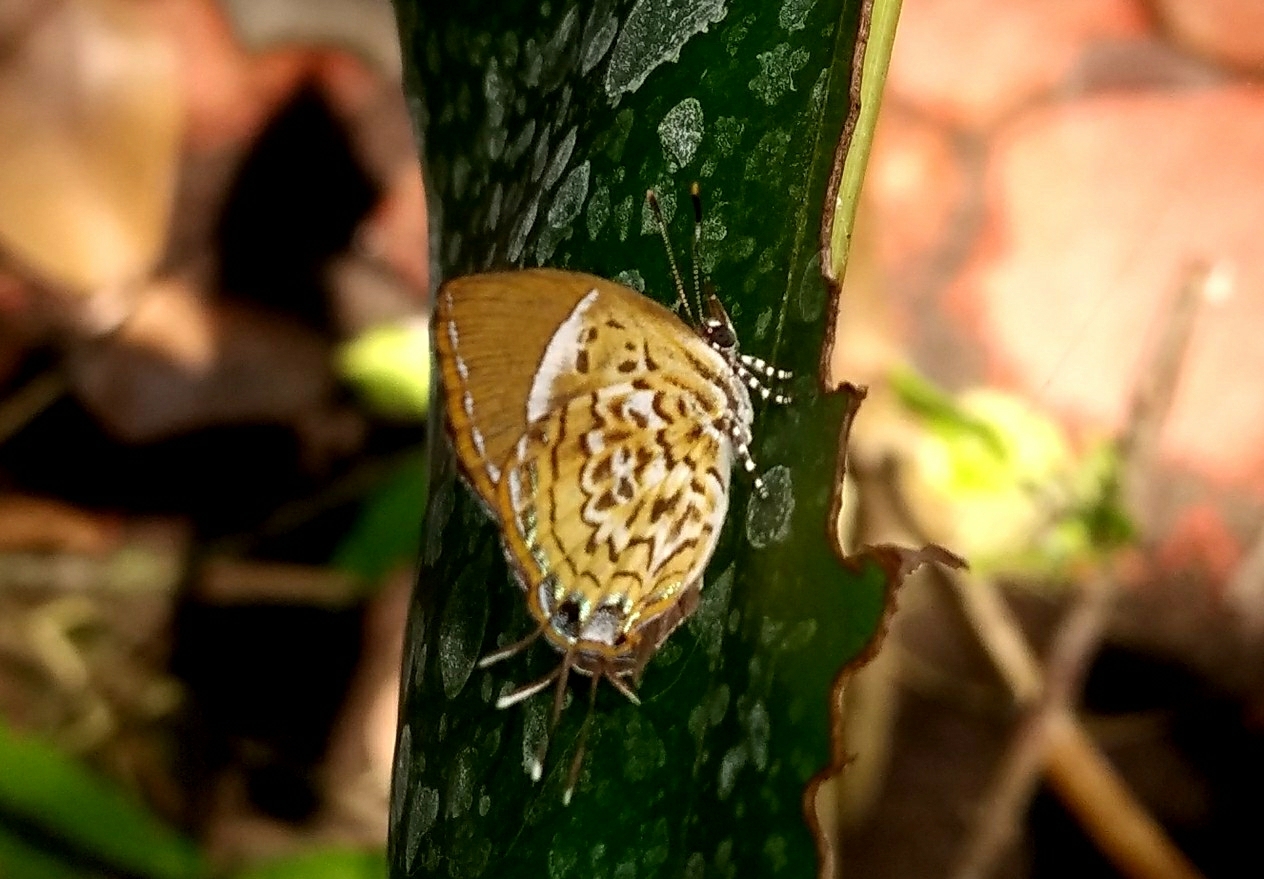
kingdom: Animalia
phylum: Arthropoda
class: Insecta
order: Lepidoptera
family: Lycaenidae
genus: Rathinda
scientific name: Rathinda amor
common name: Monkey puzzle
